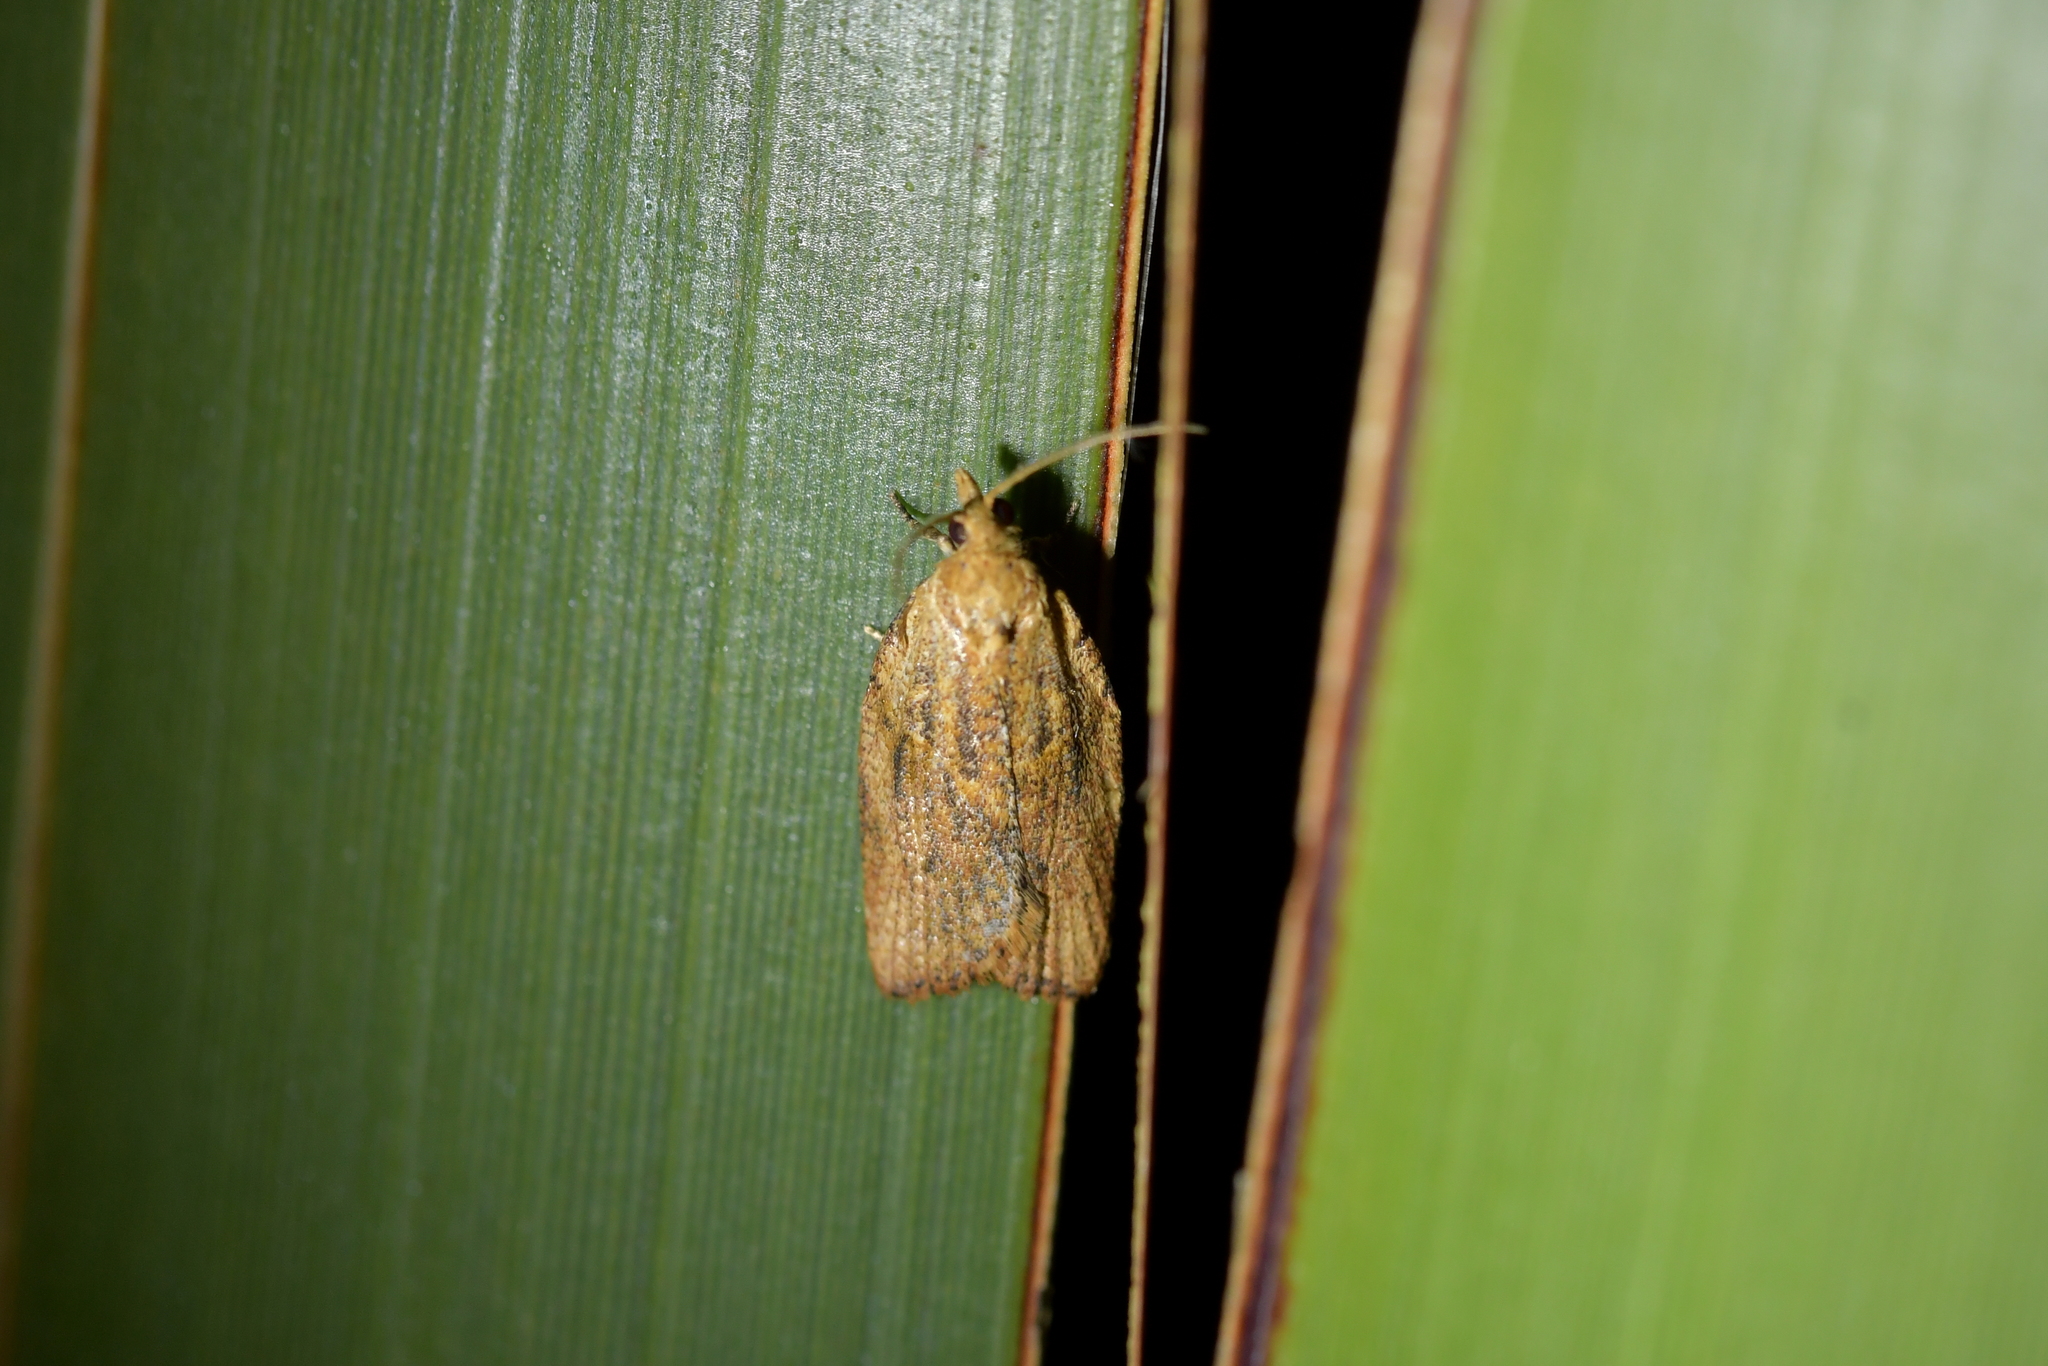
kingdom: Animalia
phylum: Arthropoda
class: Insecta
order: Lepidoptera
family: Tortricidae
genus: Epiphyas
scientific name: Epiphyas postvittana
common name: Light brown apple moth
